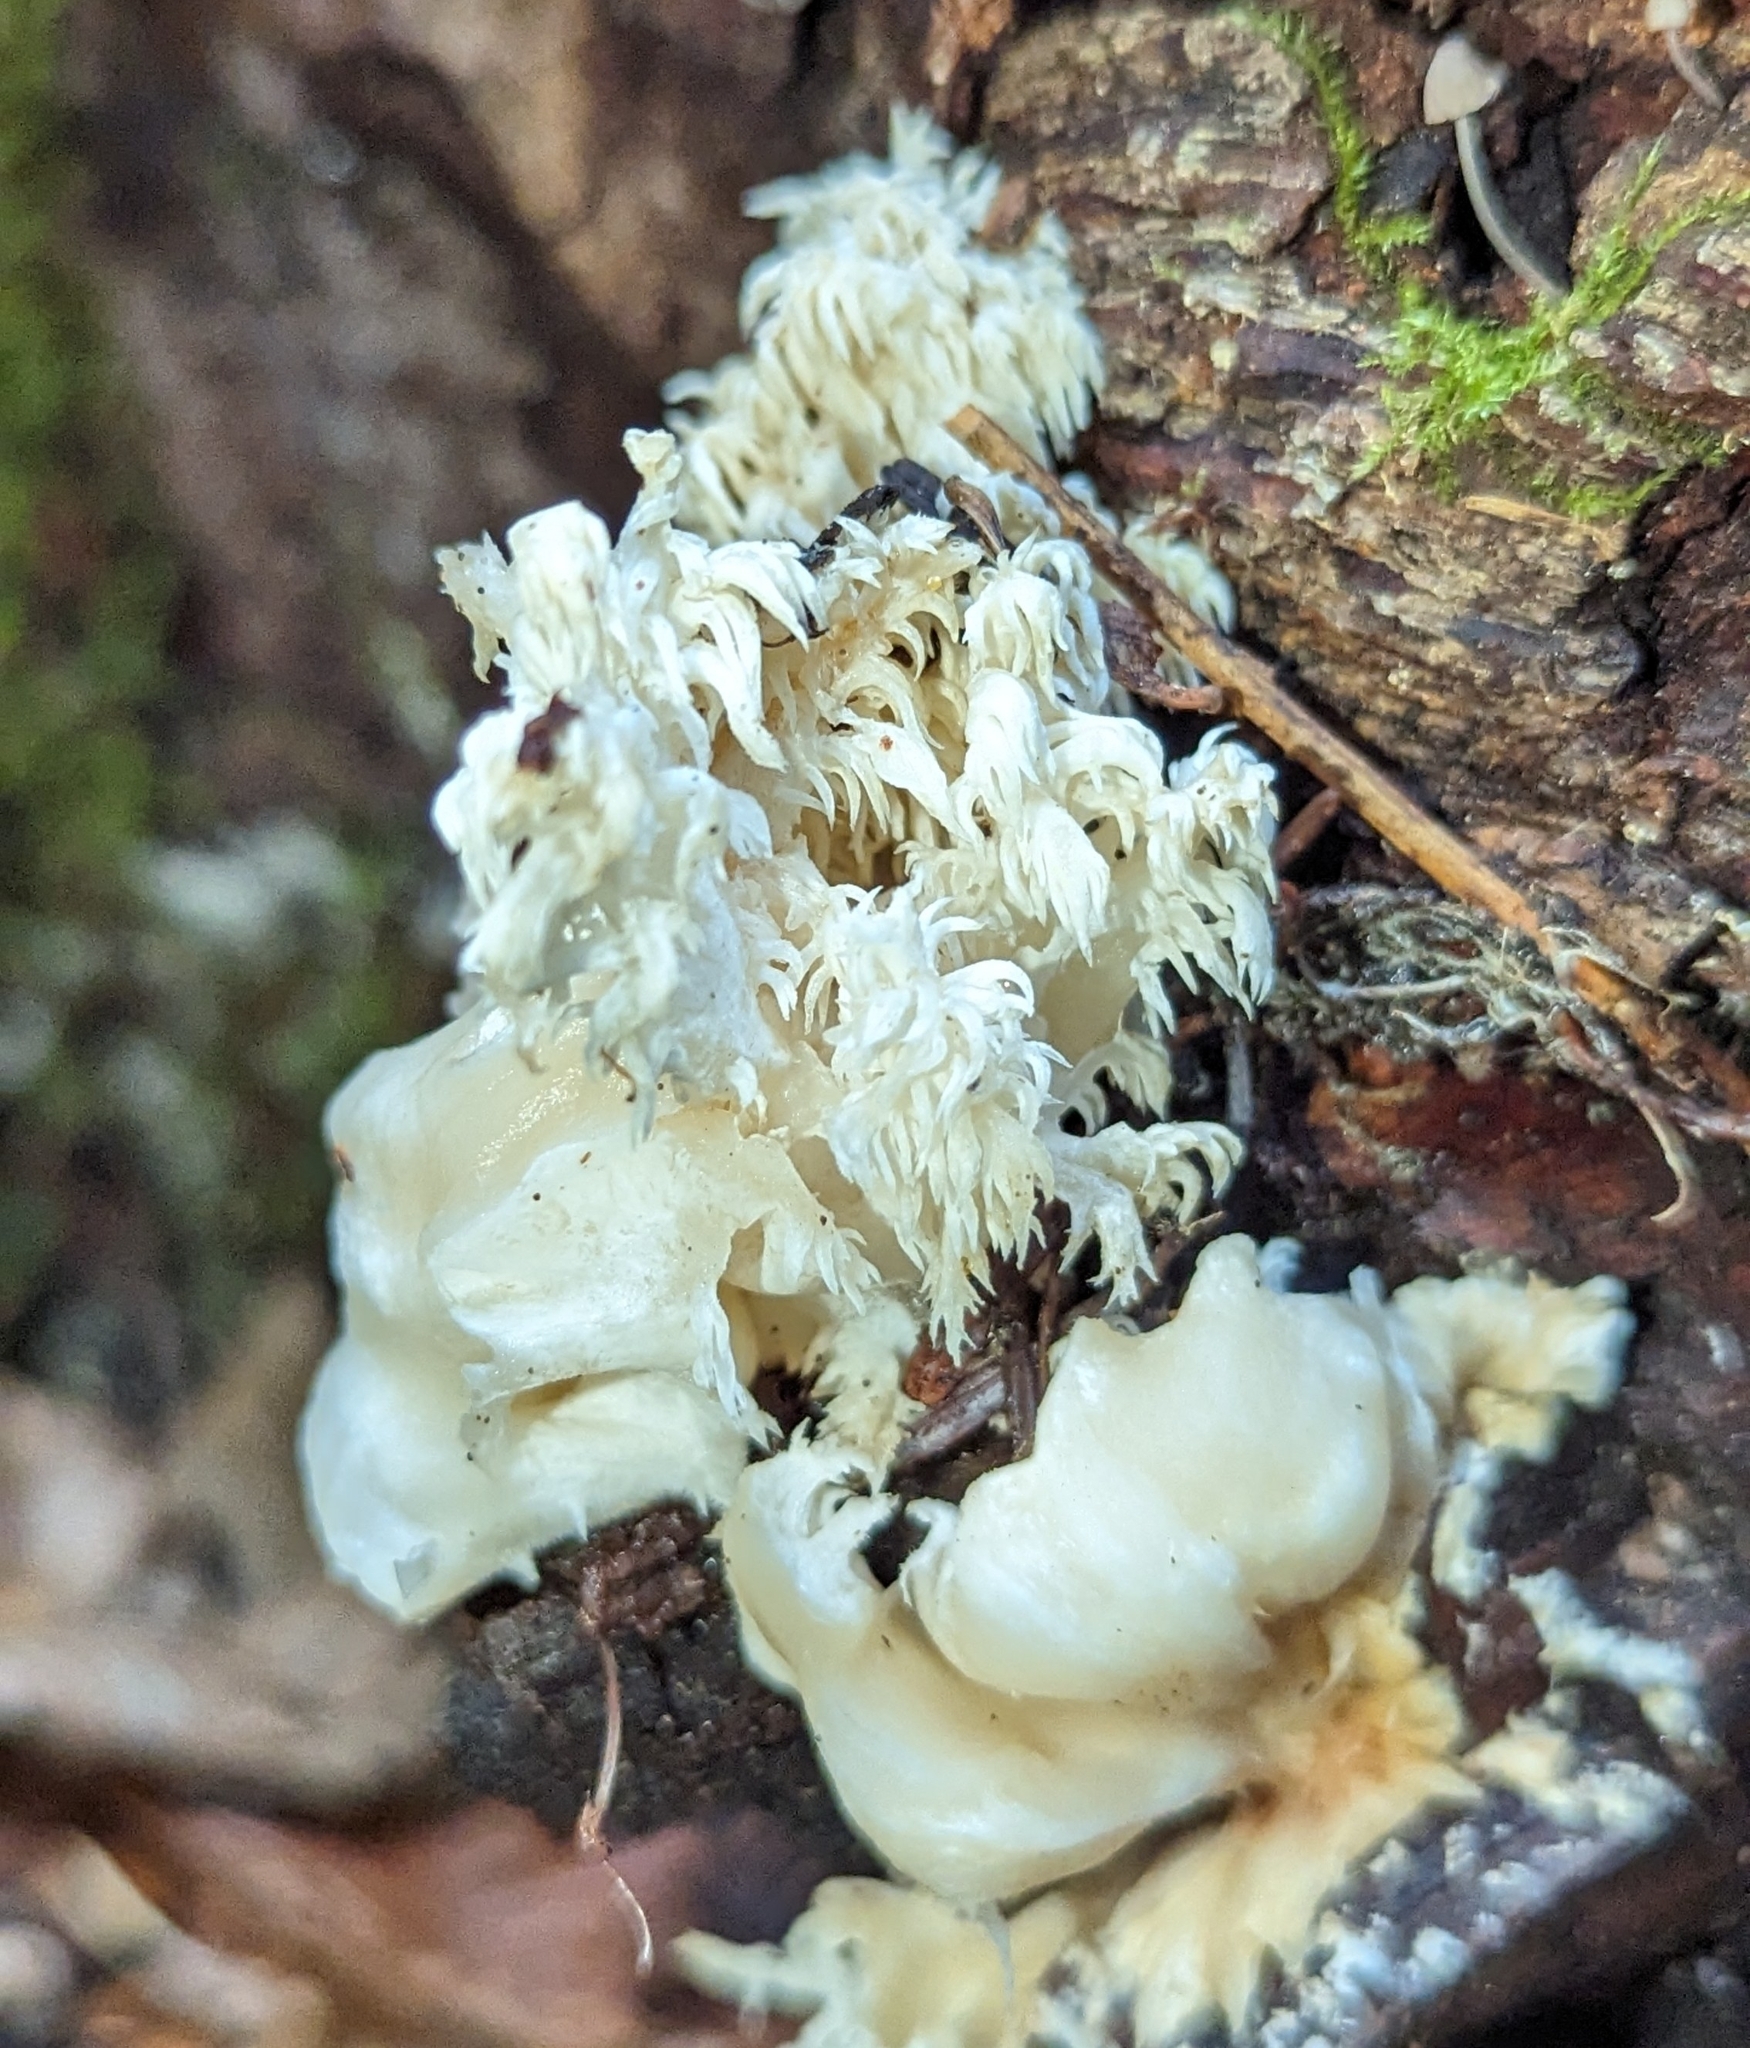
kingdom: Fungi
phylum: Basidiomycota
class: Agaricomycetes
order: Russulales
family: Hericiaceae
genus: Hericium
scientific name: Hericium abietis
